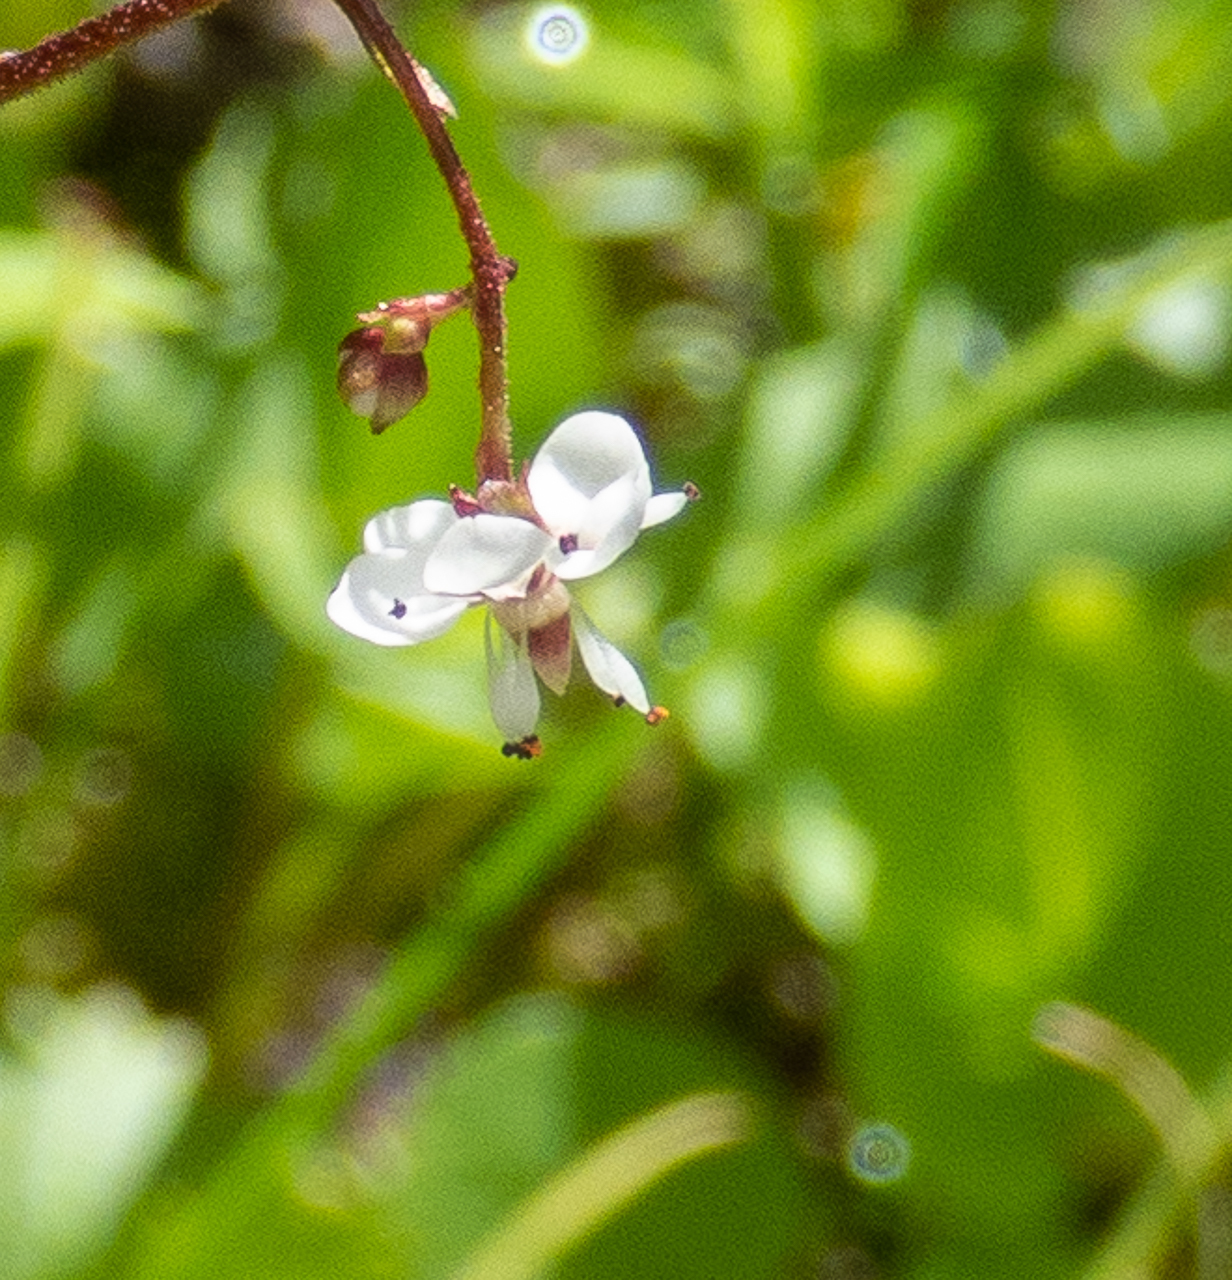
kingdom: Plantae
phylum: Tracheophyta
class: Magnoliopsida
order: Saxifragales
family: Saxifragaceae
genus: Micranthes
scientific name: Micranthes odontoloma
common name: Brook saxifrage
